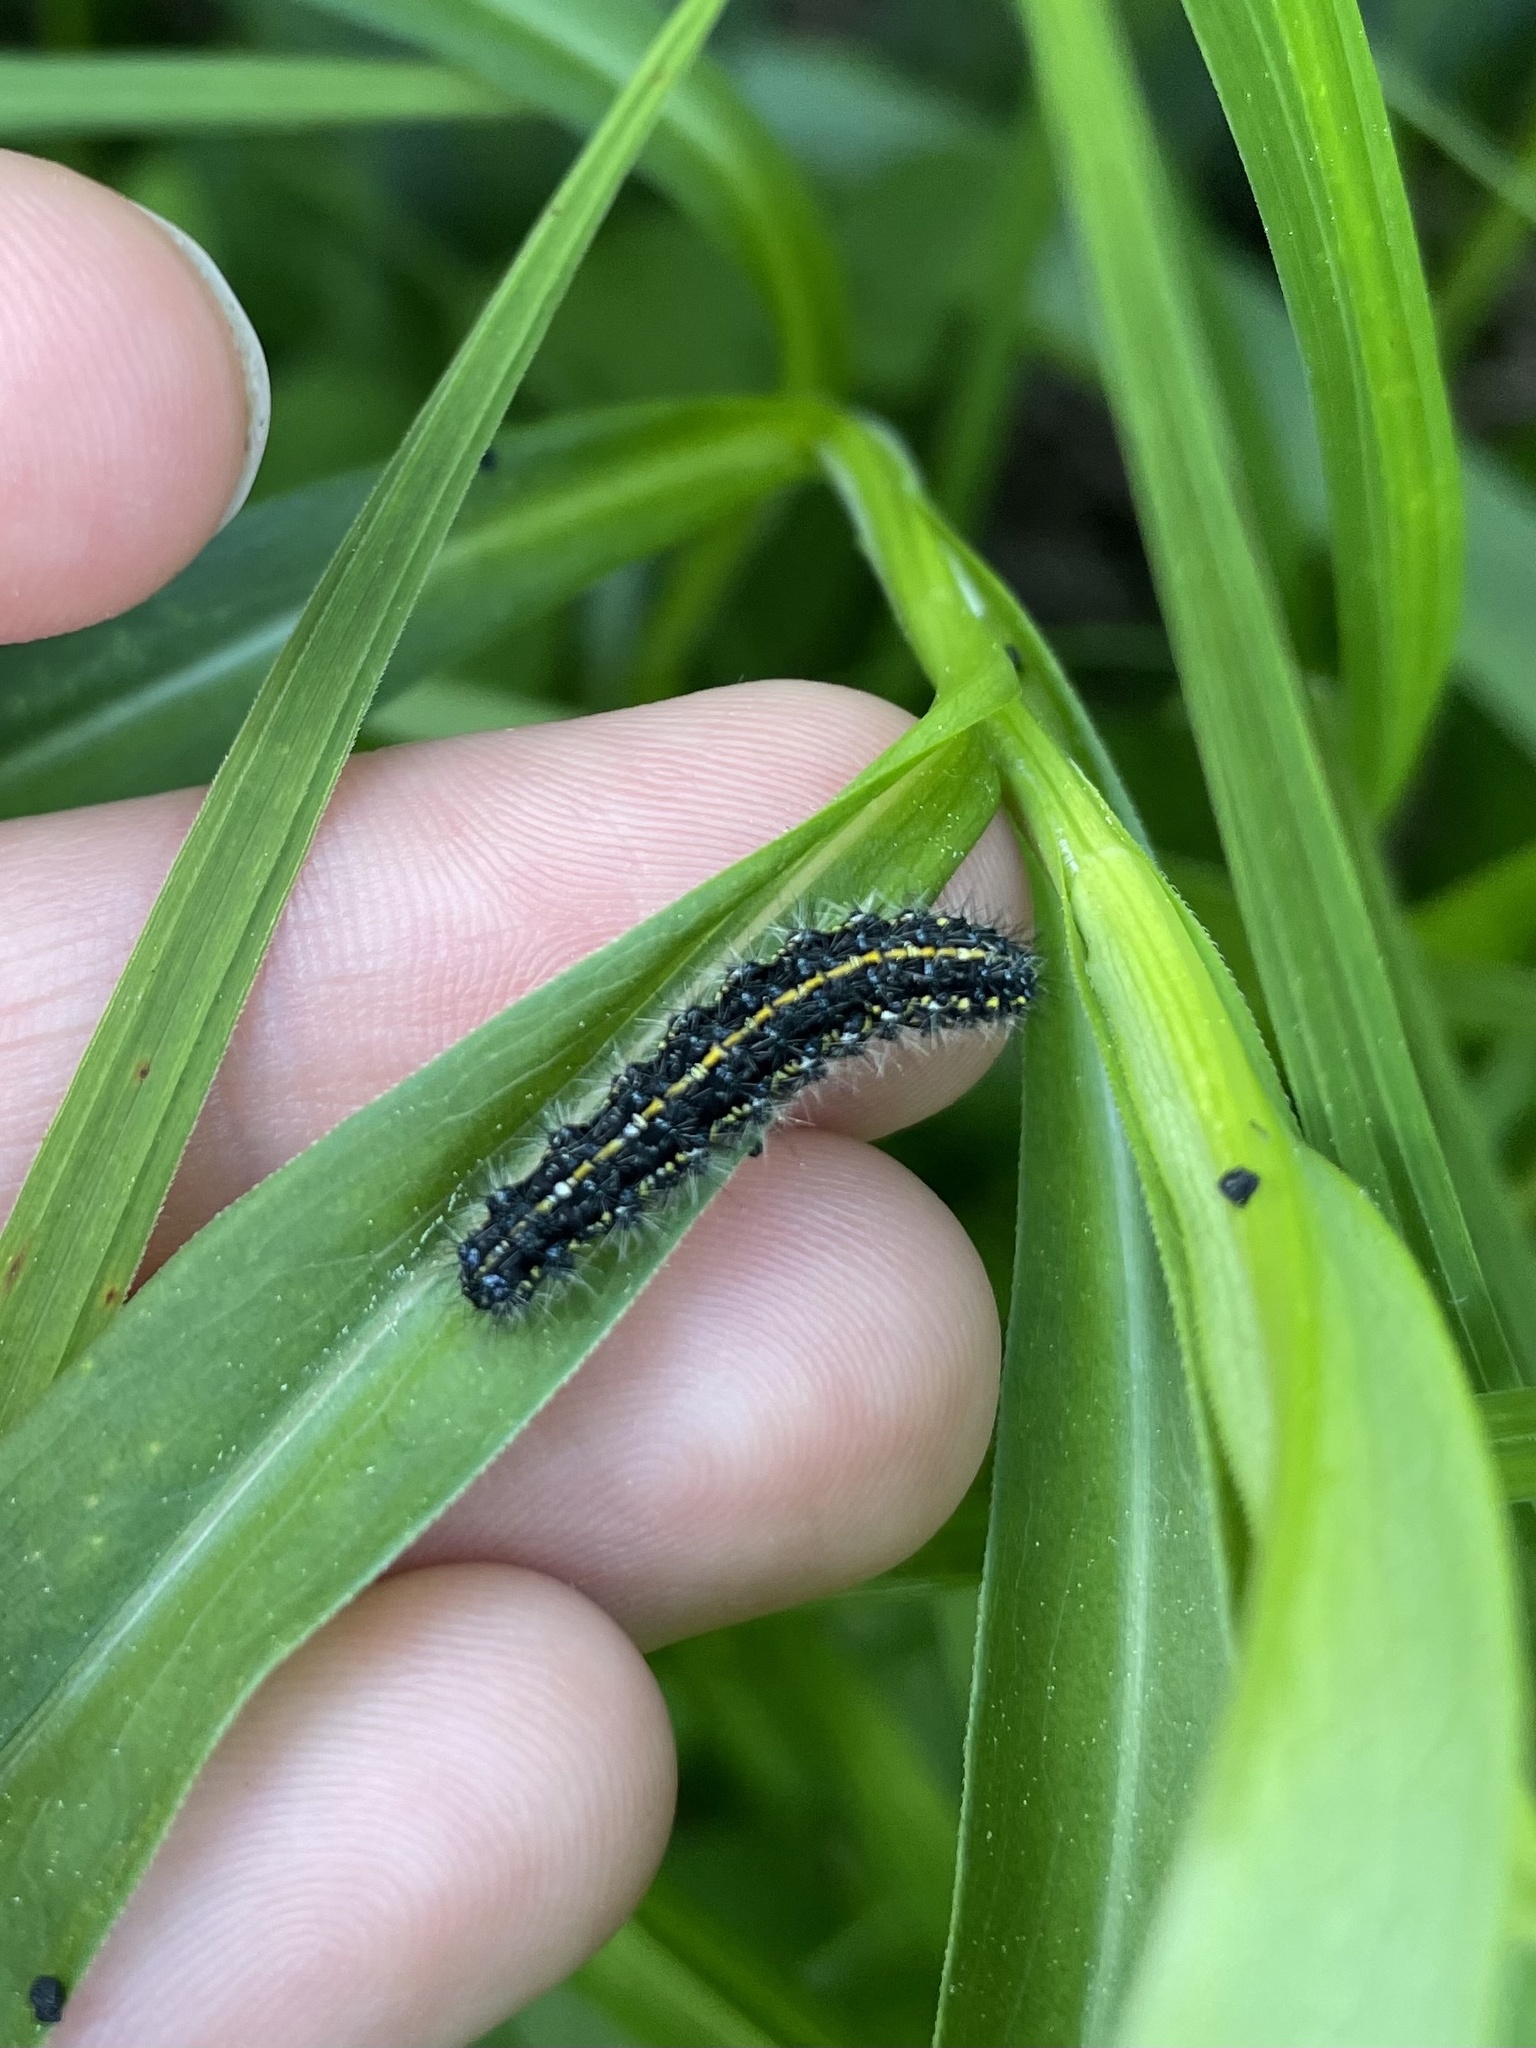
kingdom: Animalia
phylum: Arthropoda
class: Insecta
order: Lepidoptera
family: Erebidae
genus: Haploa
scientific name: Haploa confusa
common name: Confused haploa moth
